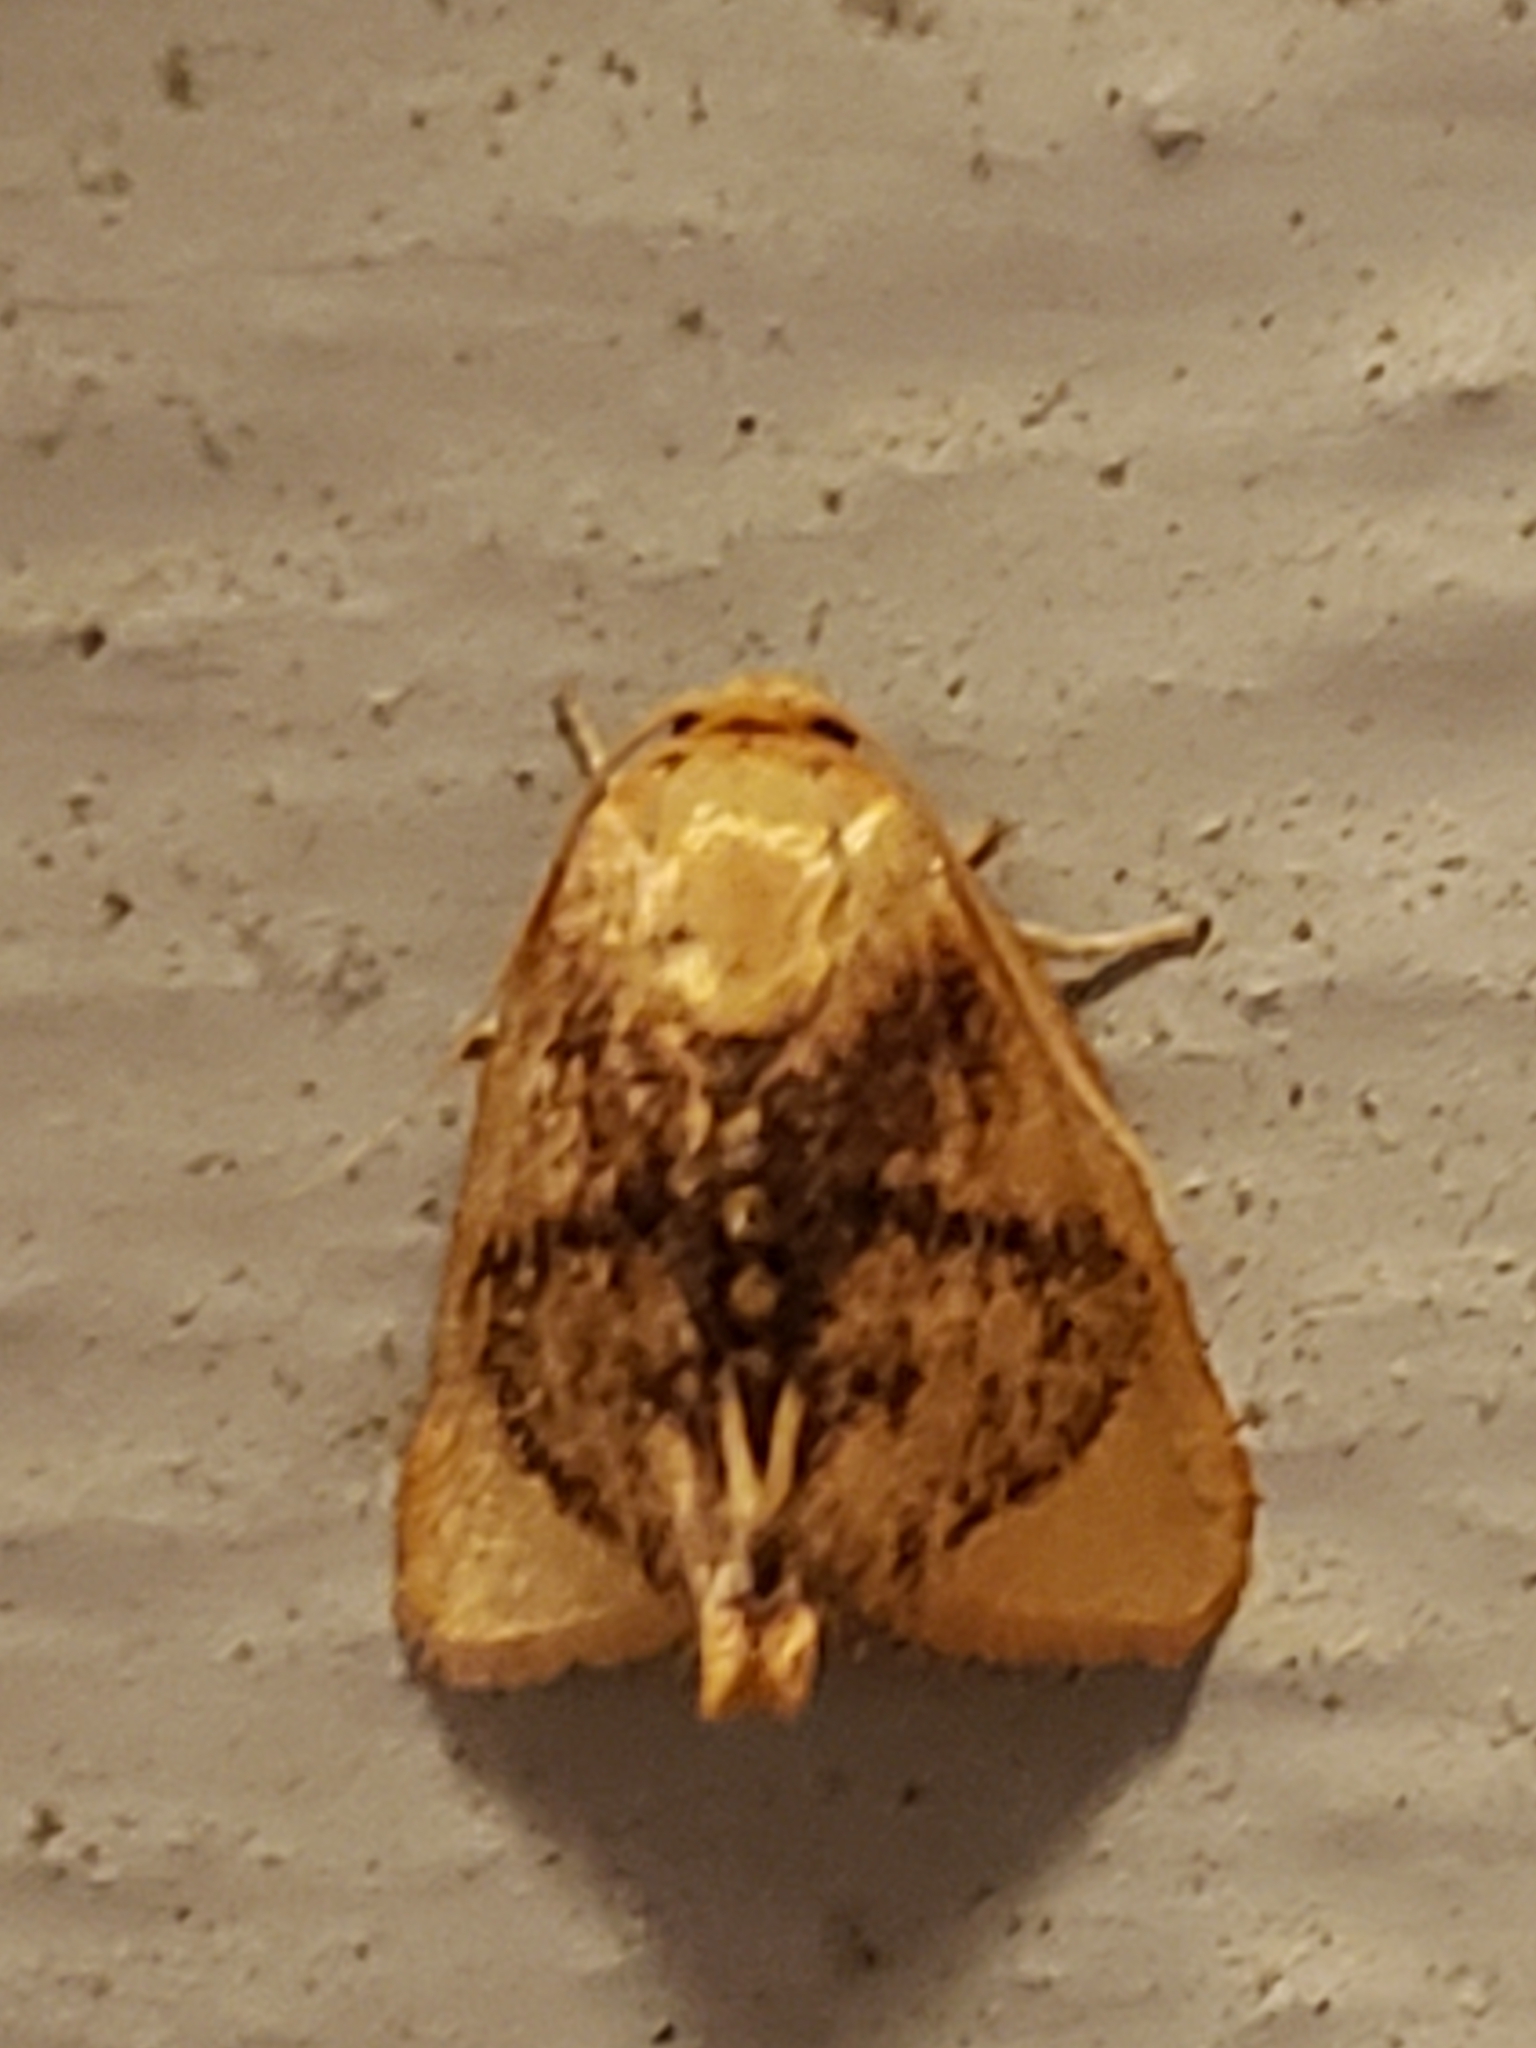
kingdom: Animalia
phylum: Arthropoda
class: Insecta
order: Lepidoptera
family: Limacodidae
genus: Tortricidia
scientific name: Tortricidia flexuosa
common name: Abbreviated button slug moth
